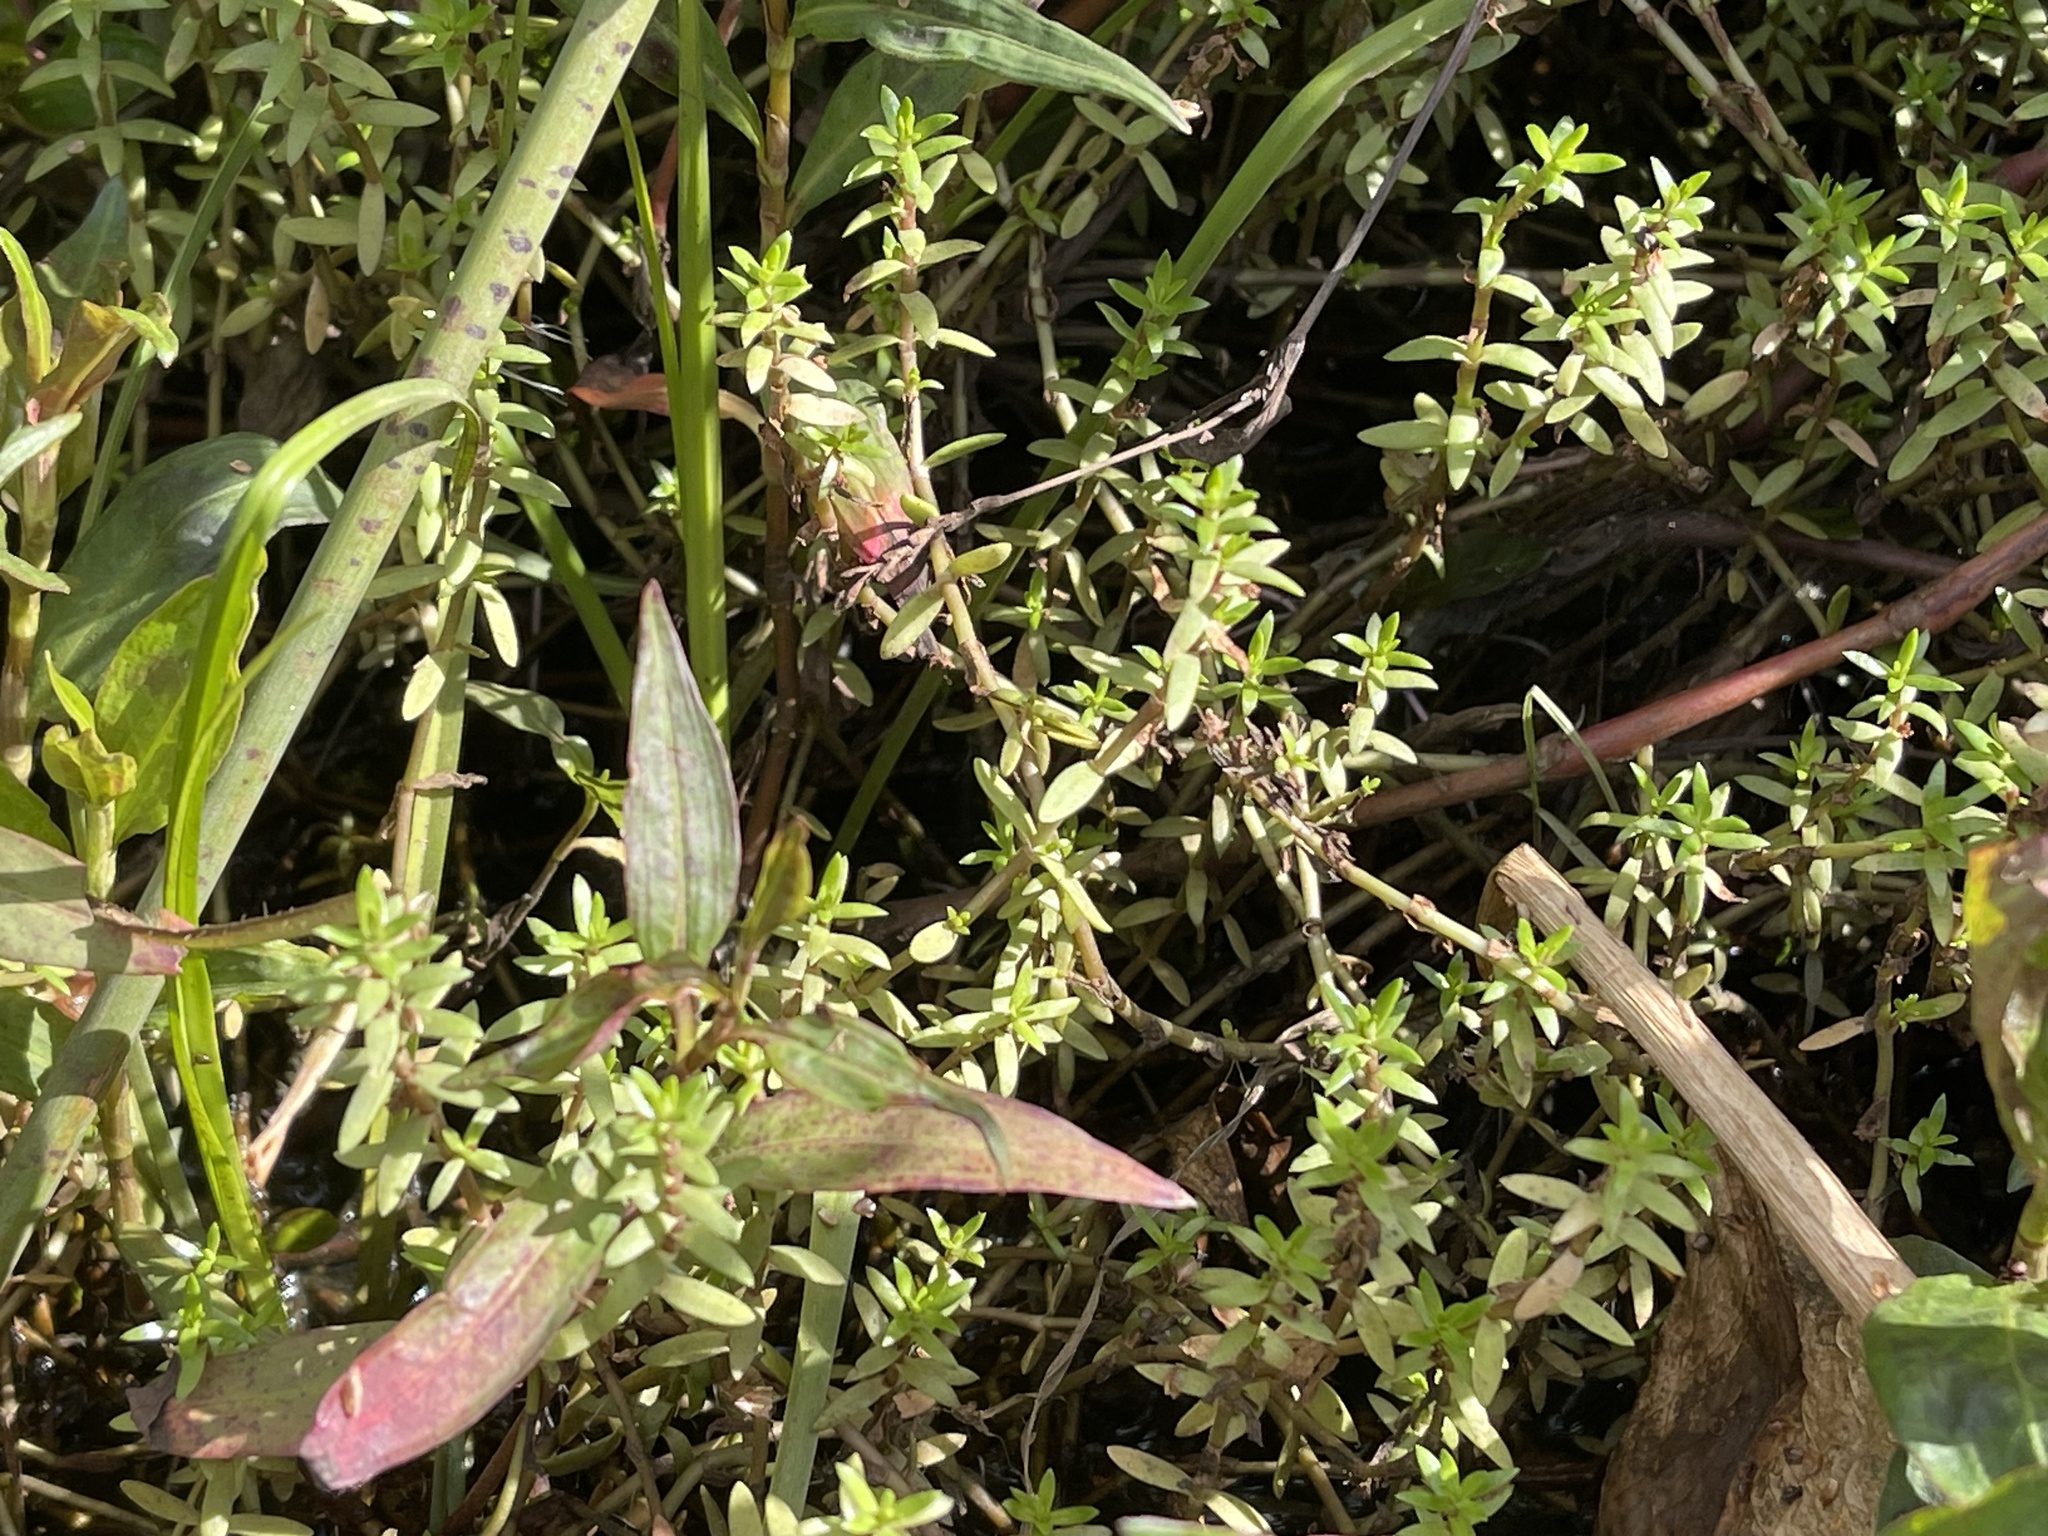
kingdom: Plantae
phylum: Tracheophyta
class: Magnoliopsida
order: Saxifragales
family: Crassulaceae
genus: Crassula
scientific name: Crassula helmsii
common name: New zealand pigmyweed
